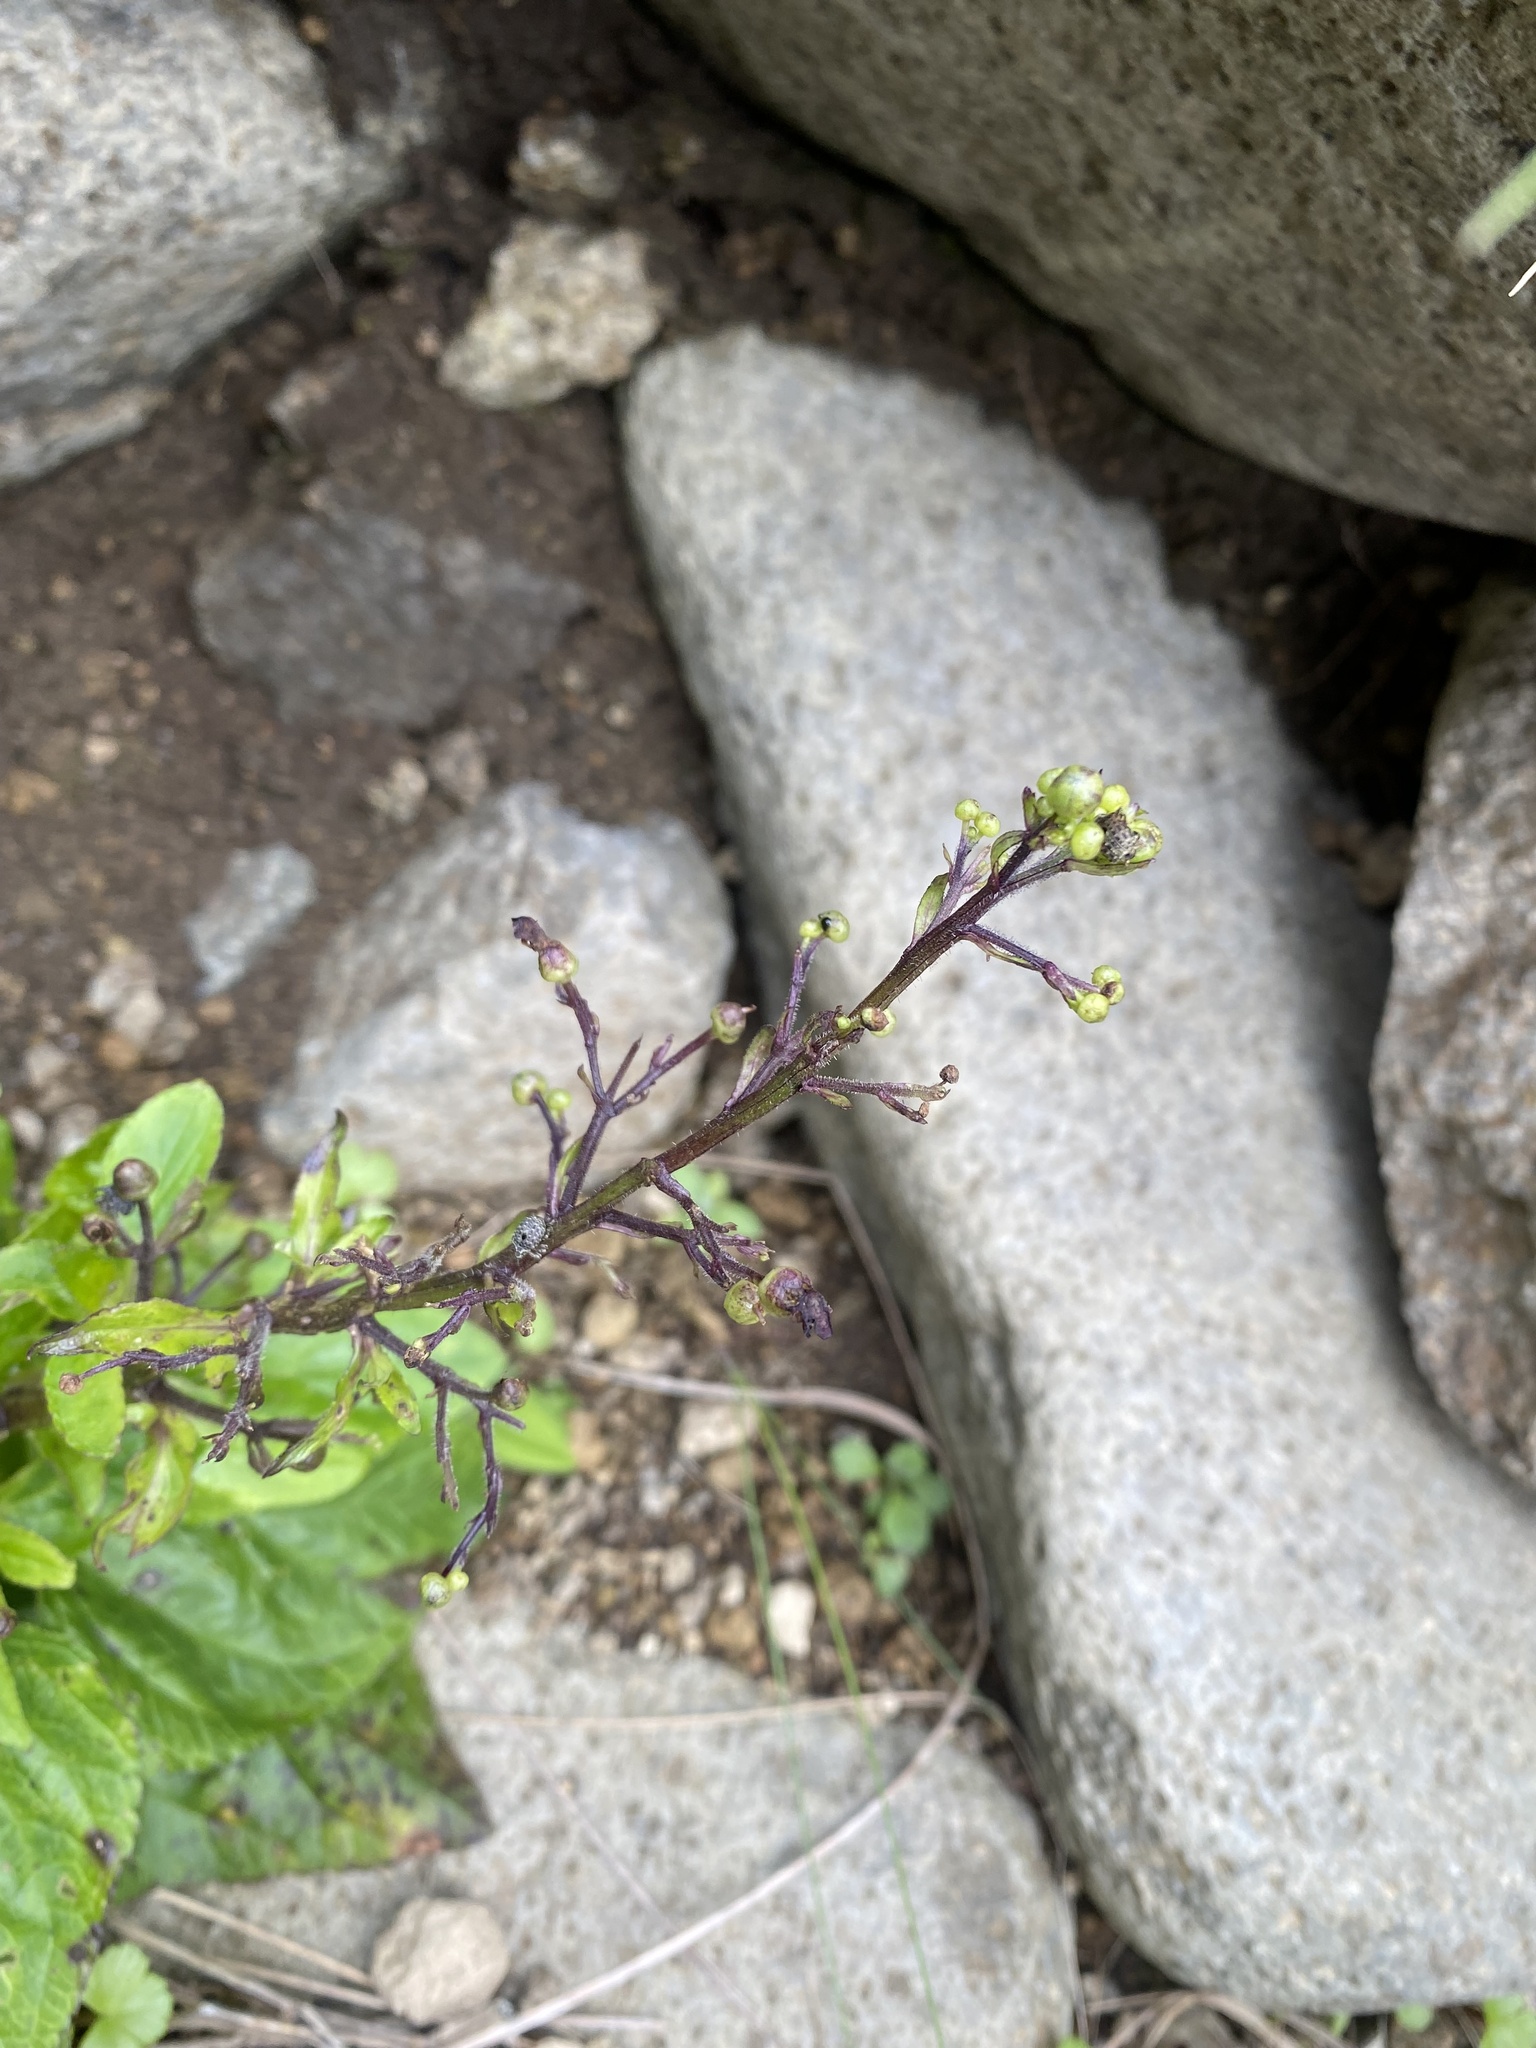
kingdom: Plantae
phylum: Tracheophyta
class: Magnoliopsida
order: Lamiales
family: Scrophulariaceae
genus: Scrophularia
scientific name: Scrophularia alata
